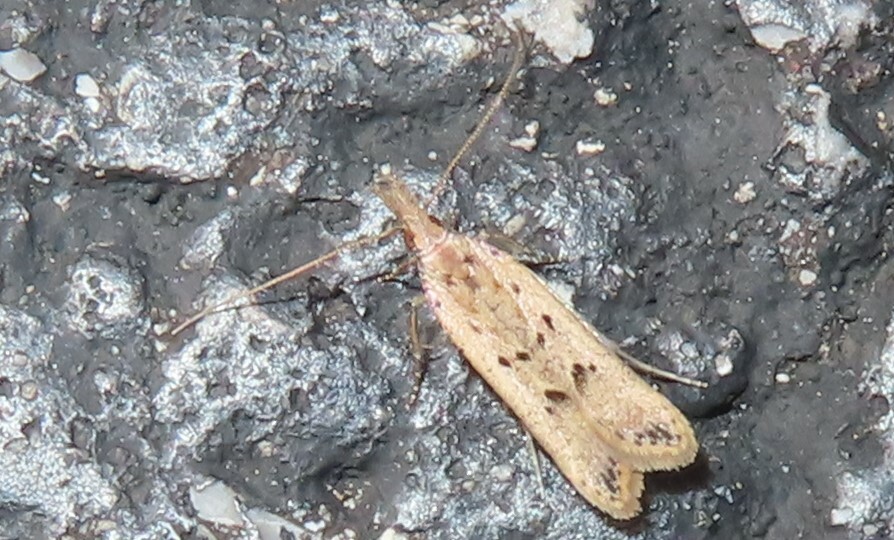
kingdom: Animalia
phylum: Arthropoda
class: Insecta
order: Lepidoptera
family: Gelechiidae
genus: Dichomeris
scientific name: Dichomeris ligulella
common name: Moth
